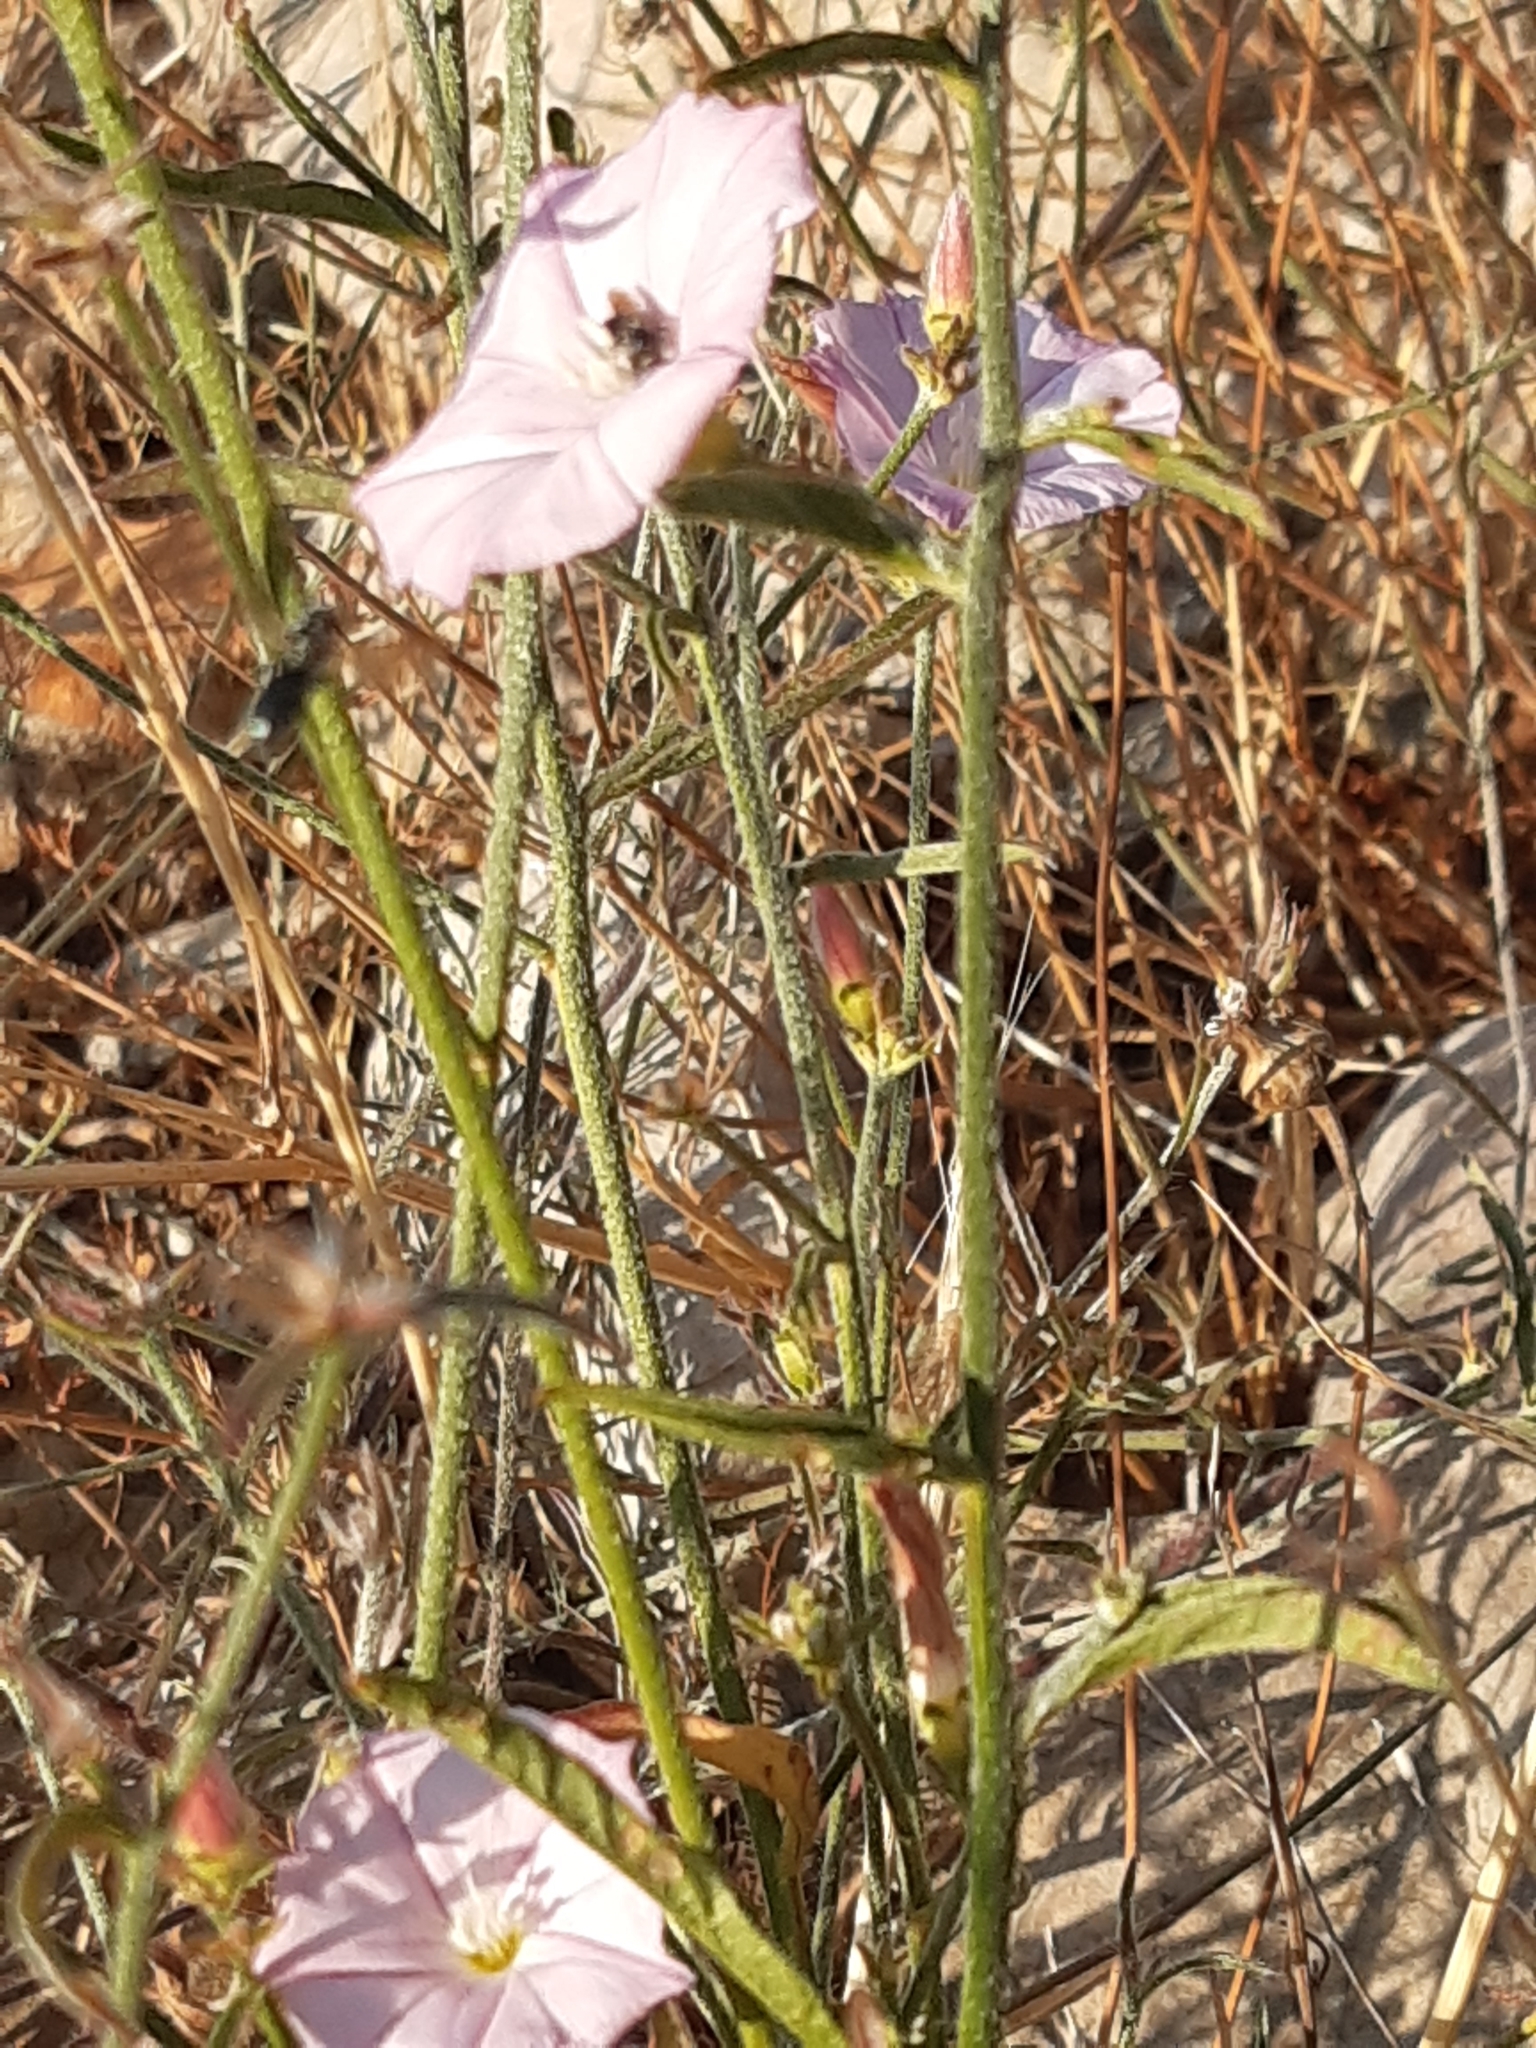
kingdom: Plantae
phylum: Tracheophyta
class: Magnoliopsida
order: Solanales
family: Convolvulaceae
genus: Convolvulus
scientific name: Convolvulus cantabrica
